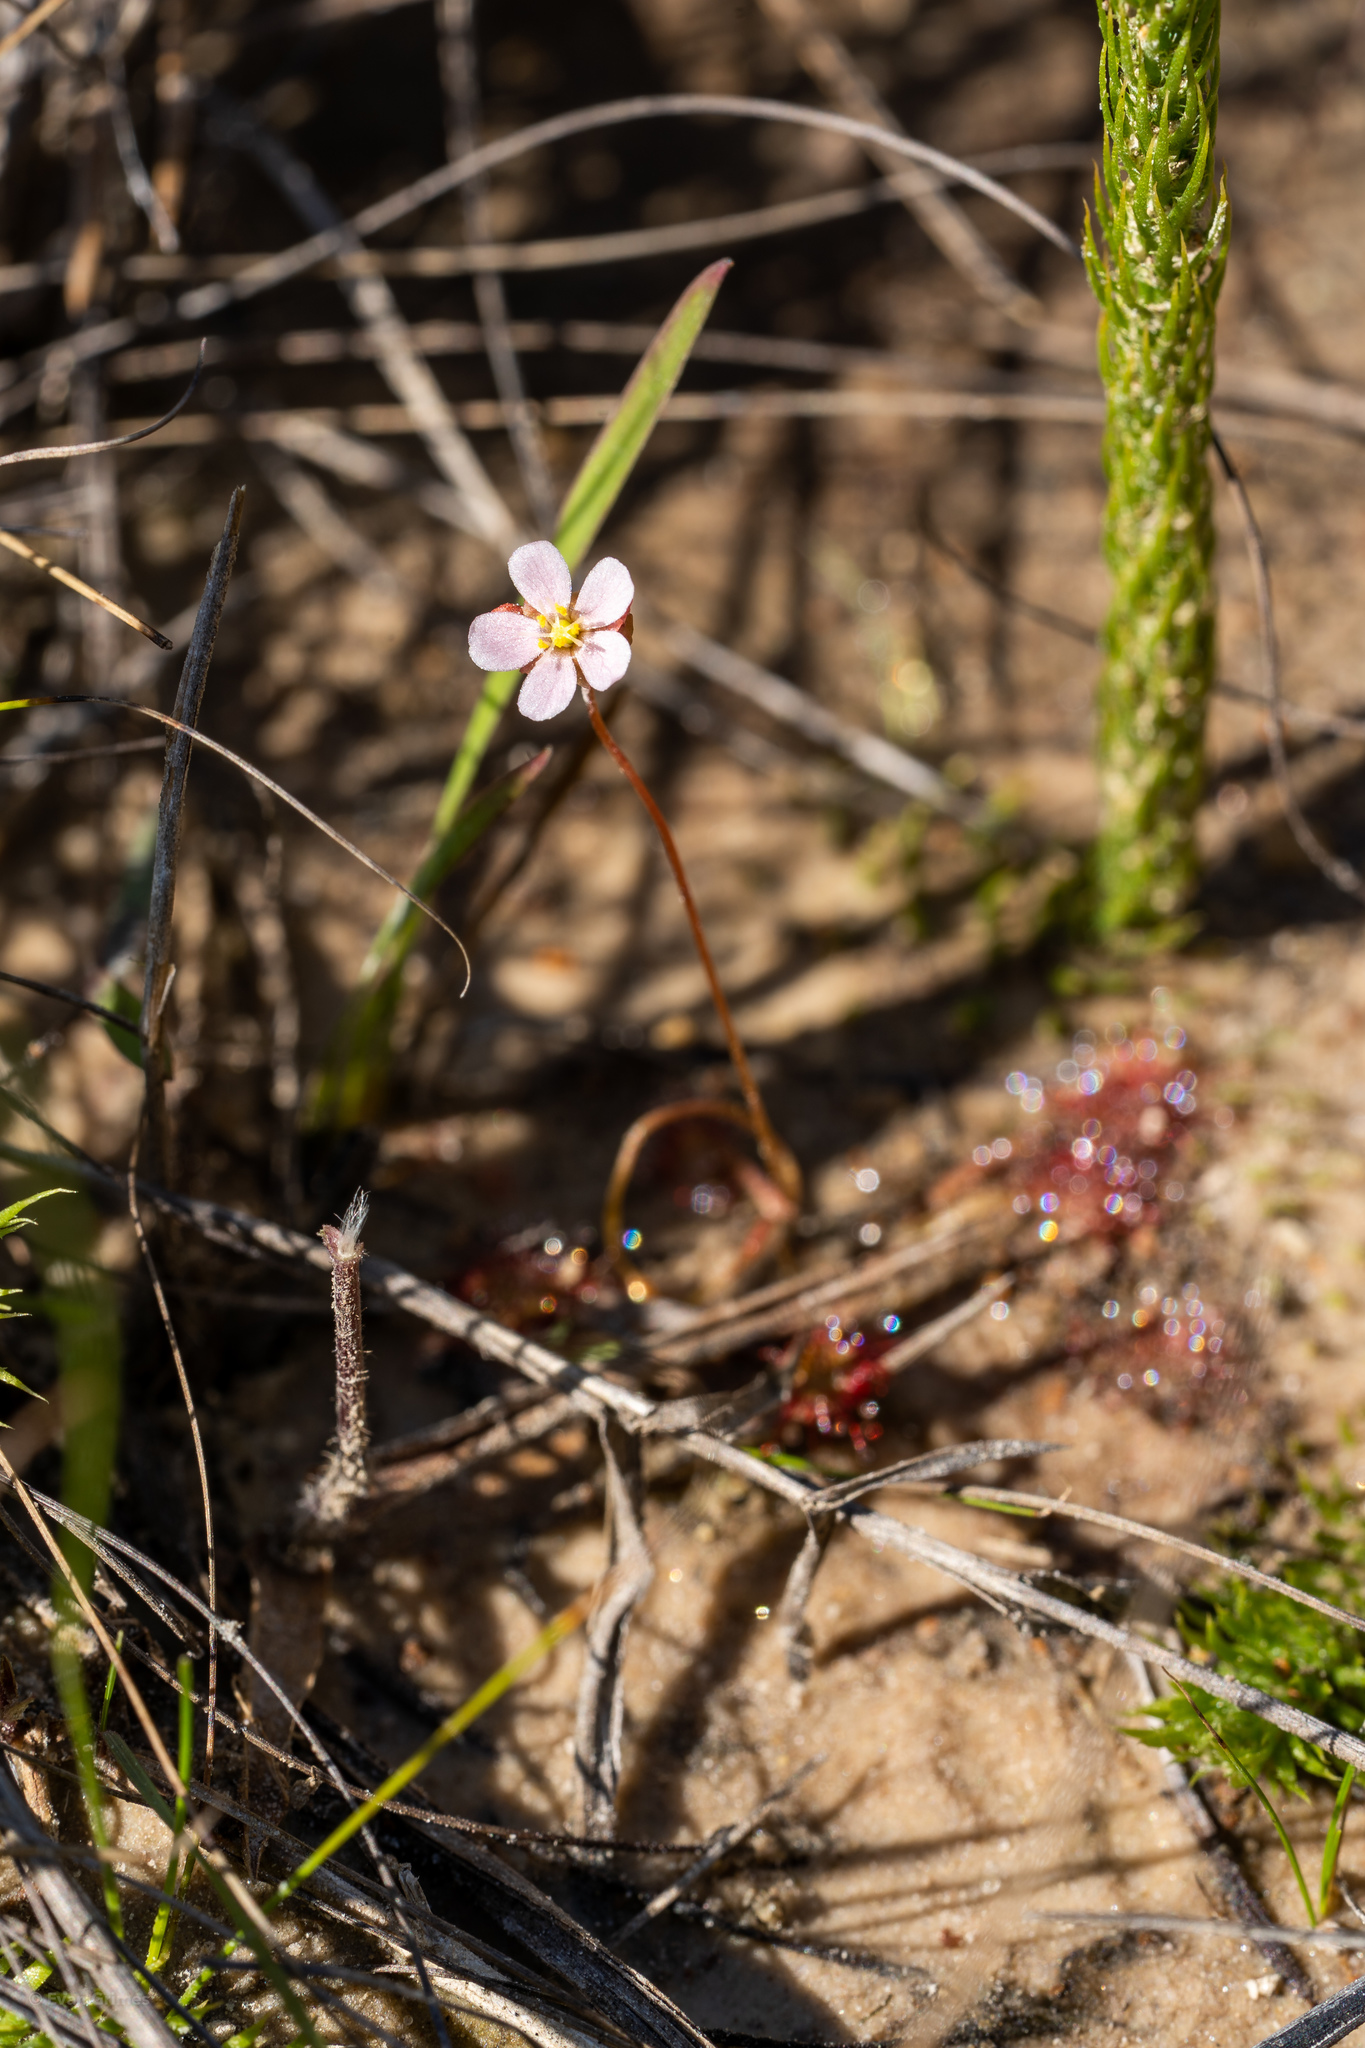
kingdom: Plantae
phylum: Tracheophyta
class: Magnoliopsida
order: Caryophyllales
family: Droseraceae
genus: Drosera
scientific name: Drosera capillaris
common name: Pink sundew
